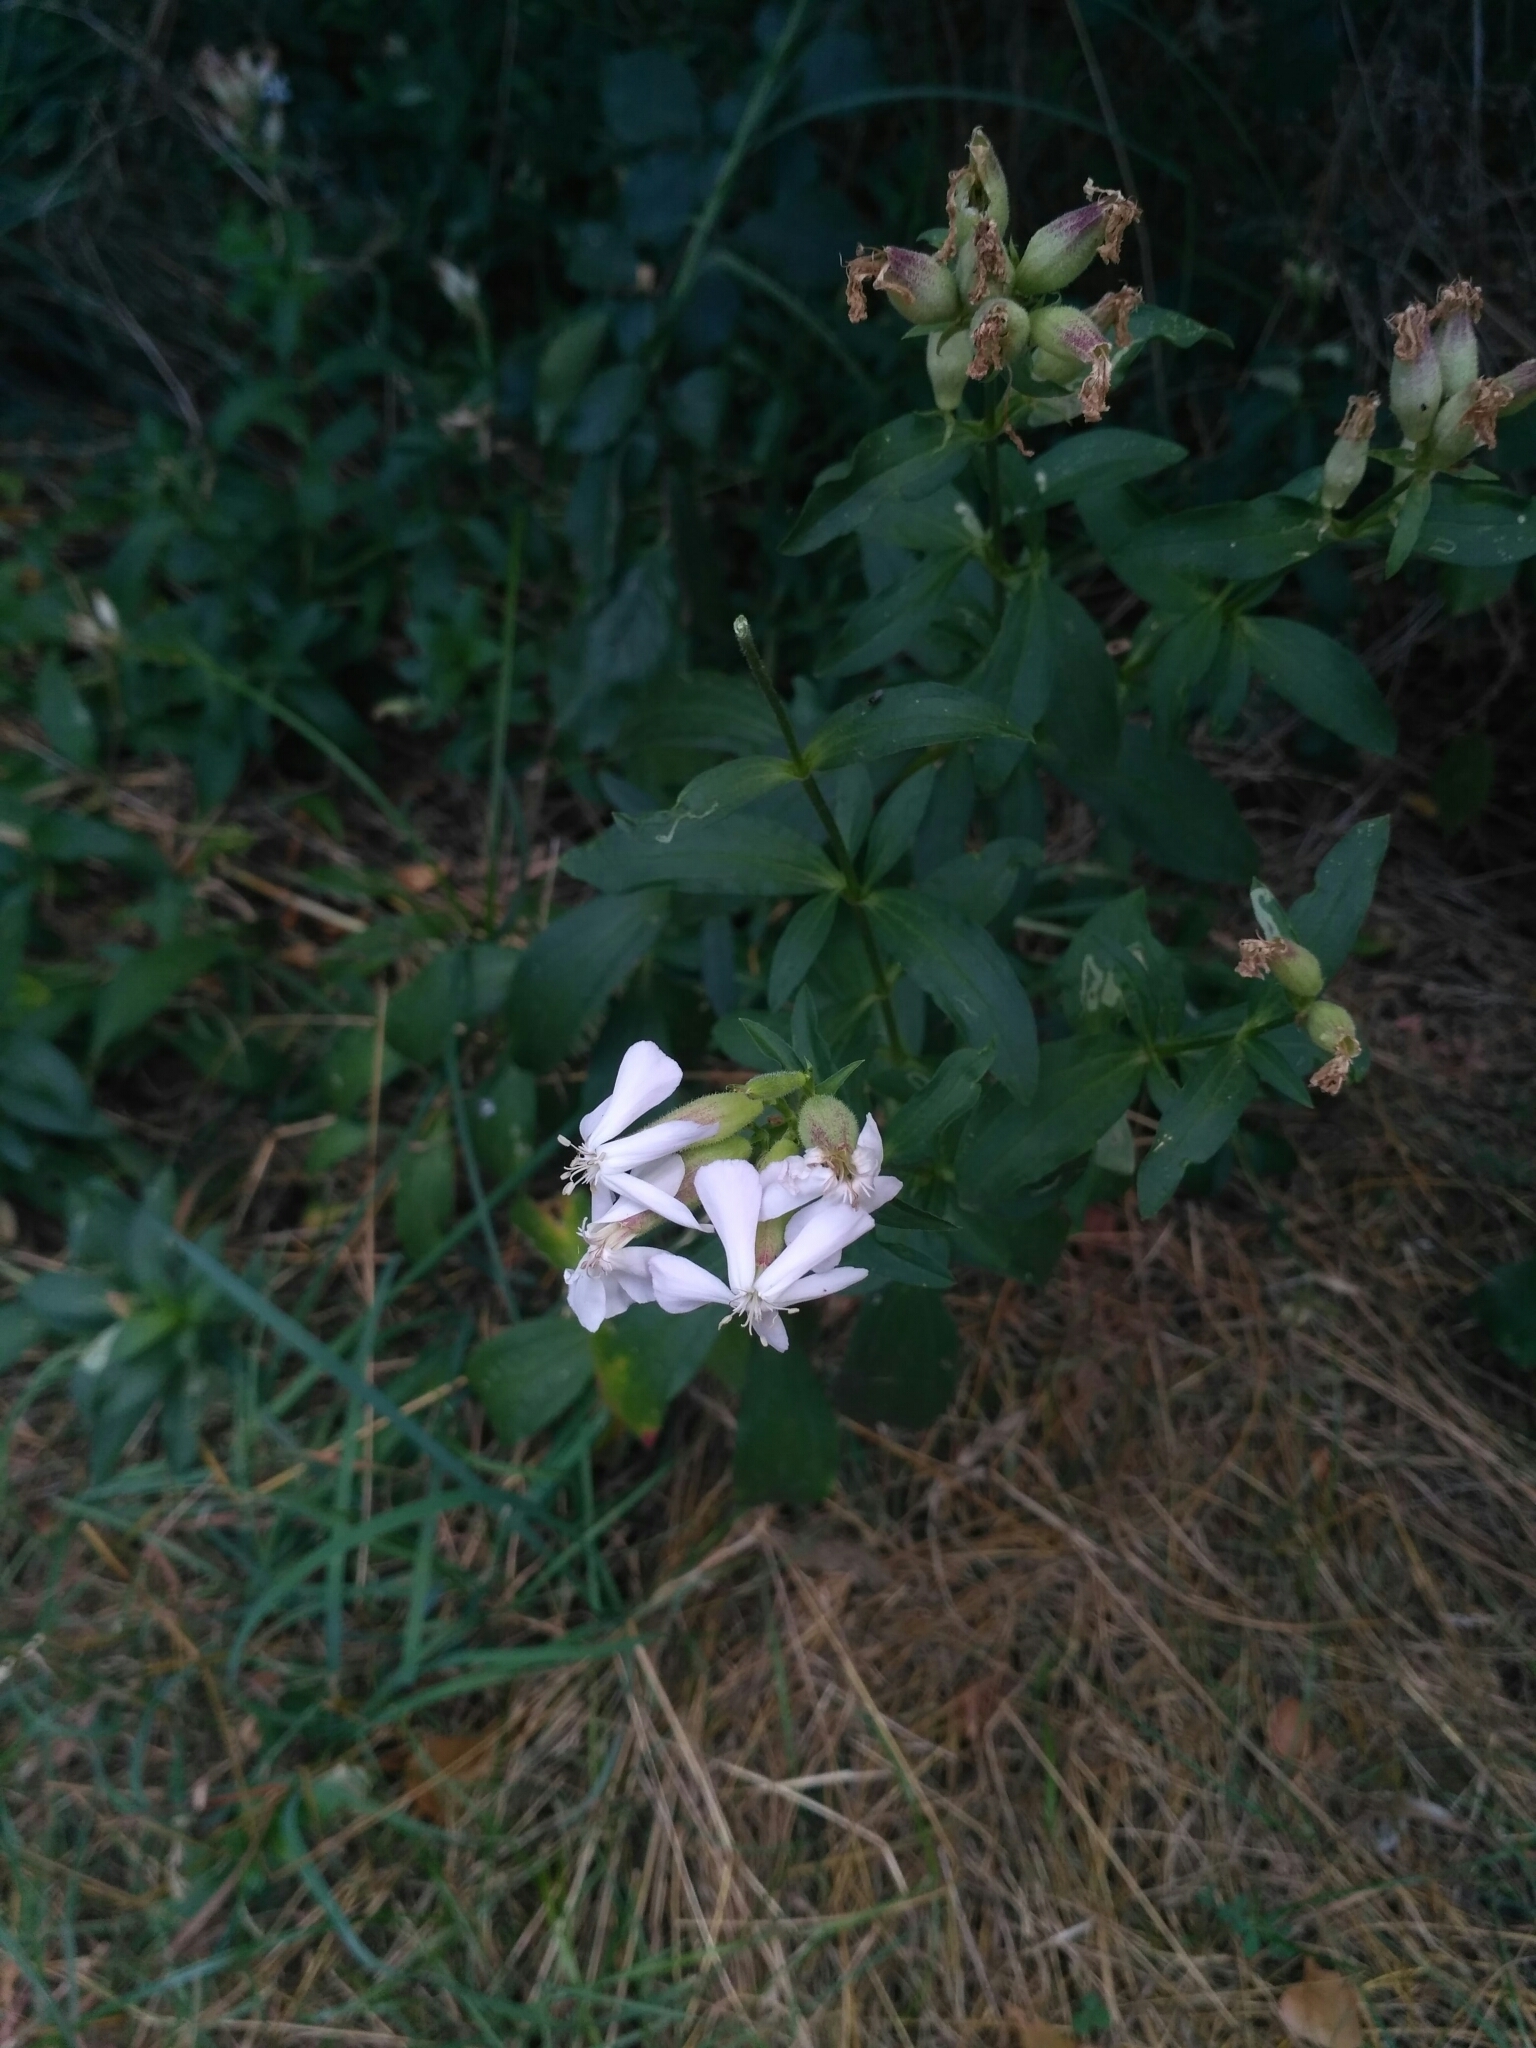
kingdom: Plantae
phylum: Tracheophyta
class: Magnoliopsida
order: Caryophyllales
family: Caryophyllaceae
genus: Saponaria
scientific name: Saponaria officinalis
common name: Soapwort
